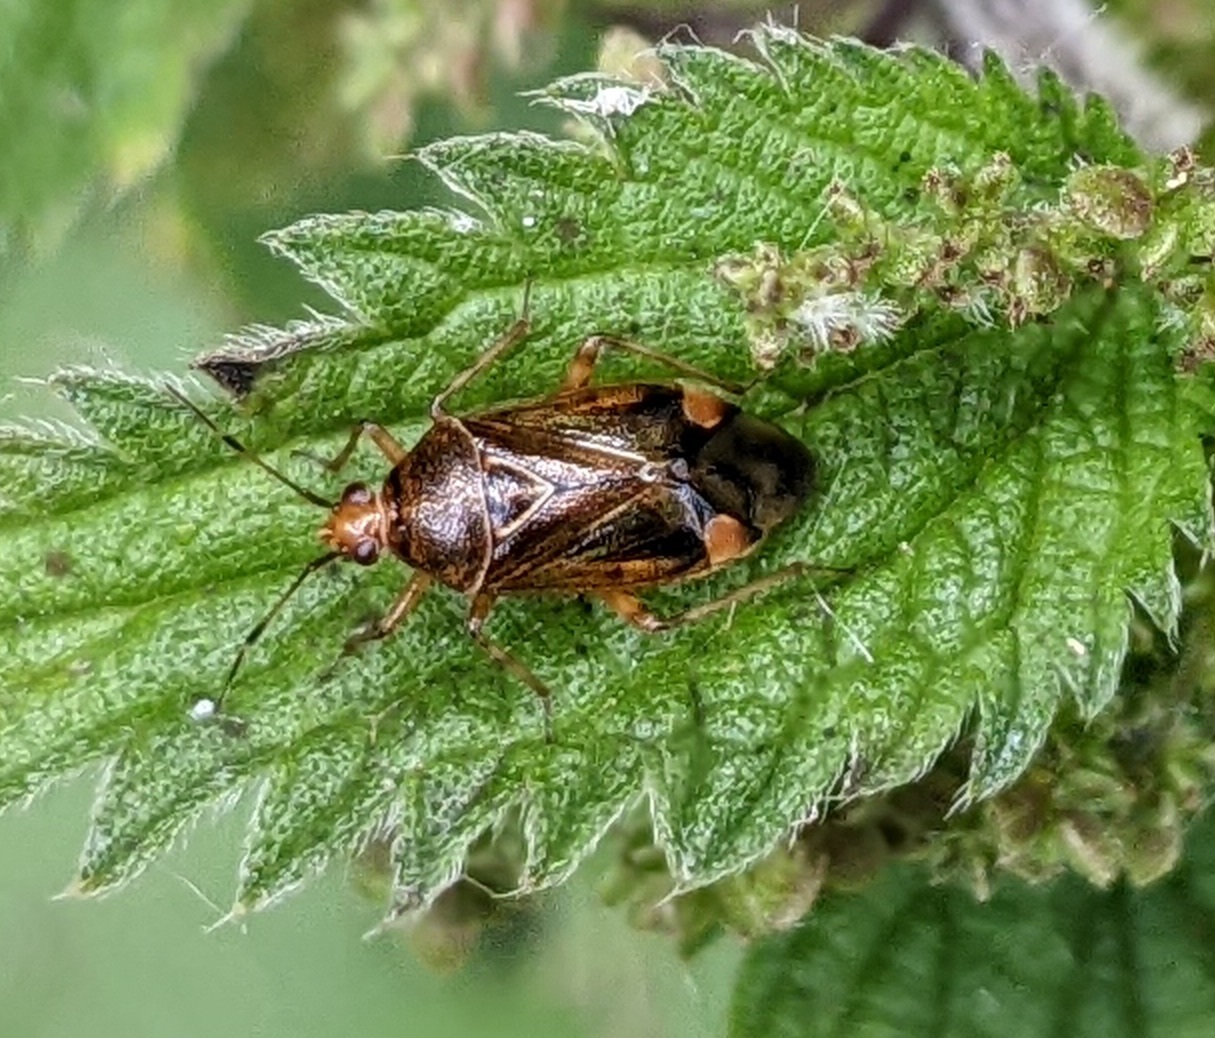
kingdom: Animalia
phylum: Arthropoda
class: Insecta
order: Hemiptera
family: Miridae
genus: Deraeocoris
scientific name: Deraeocoris flavilinea
